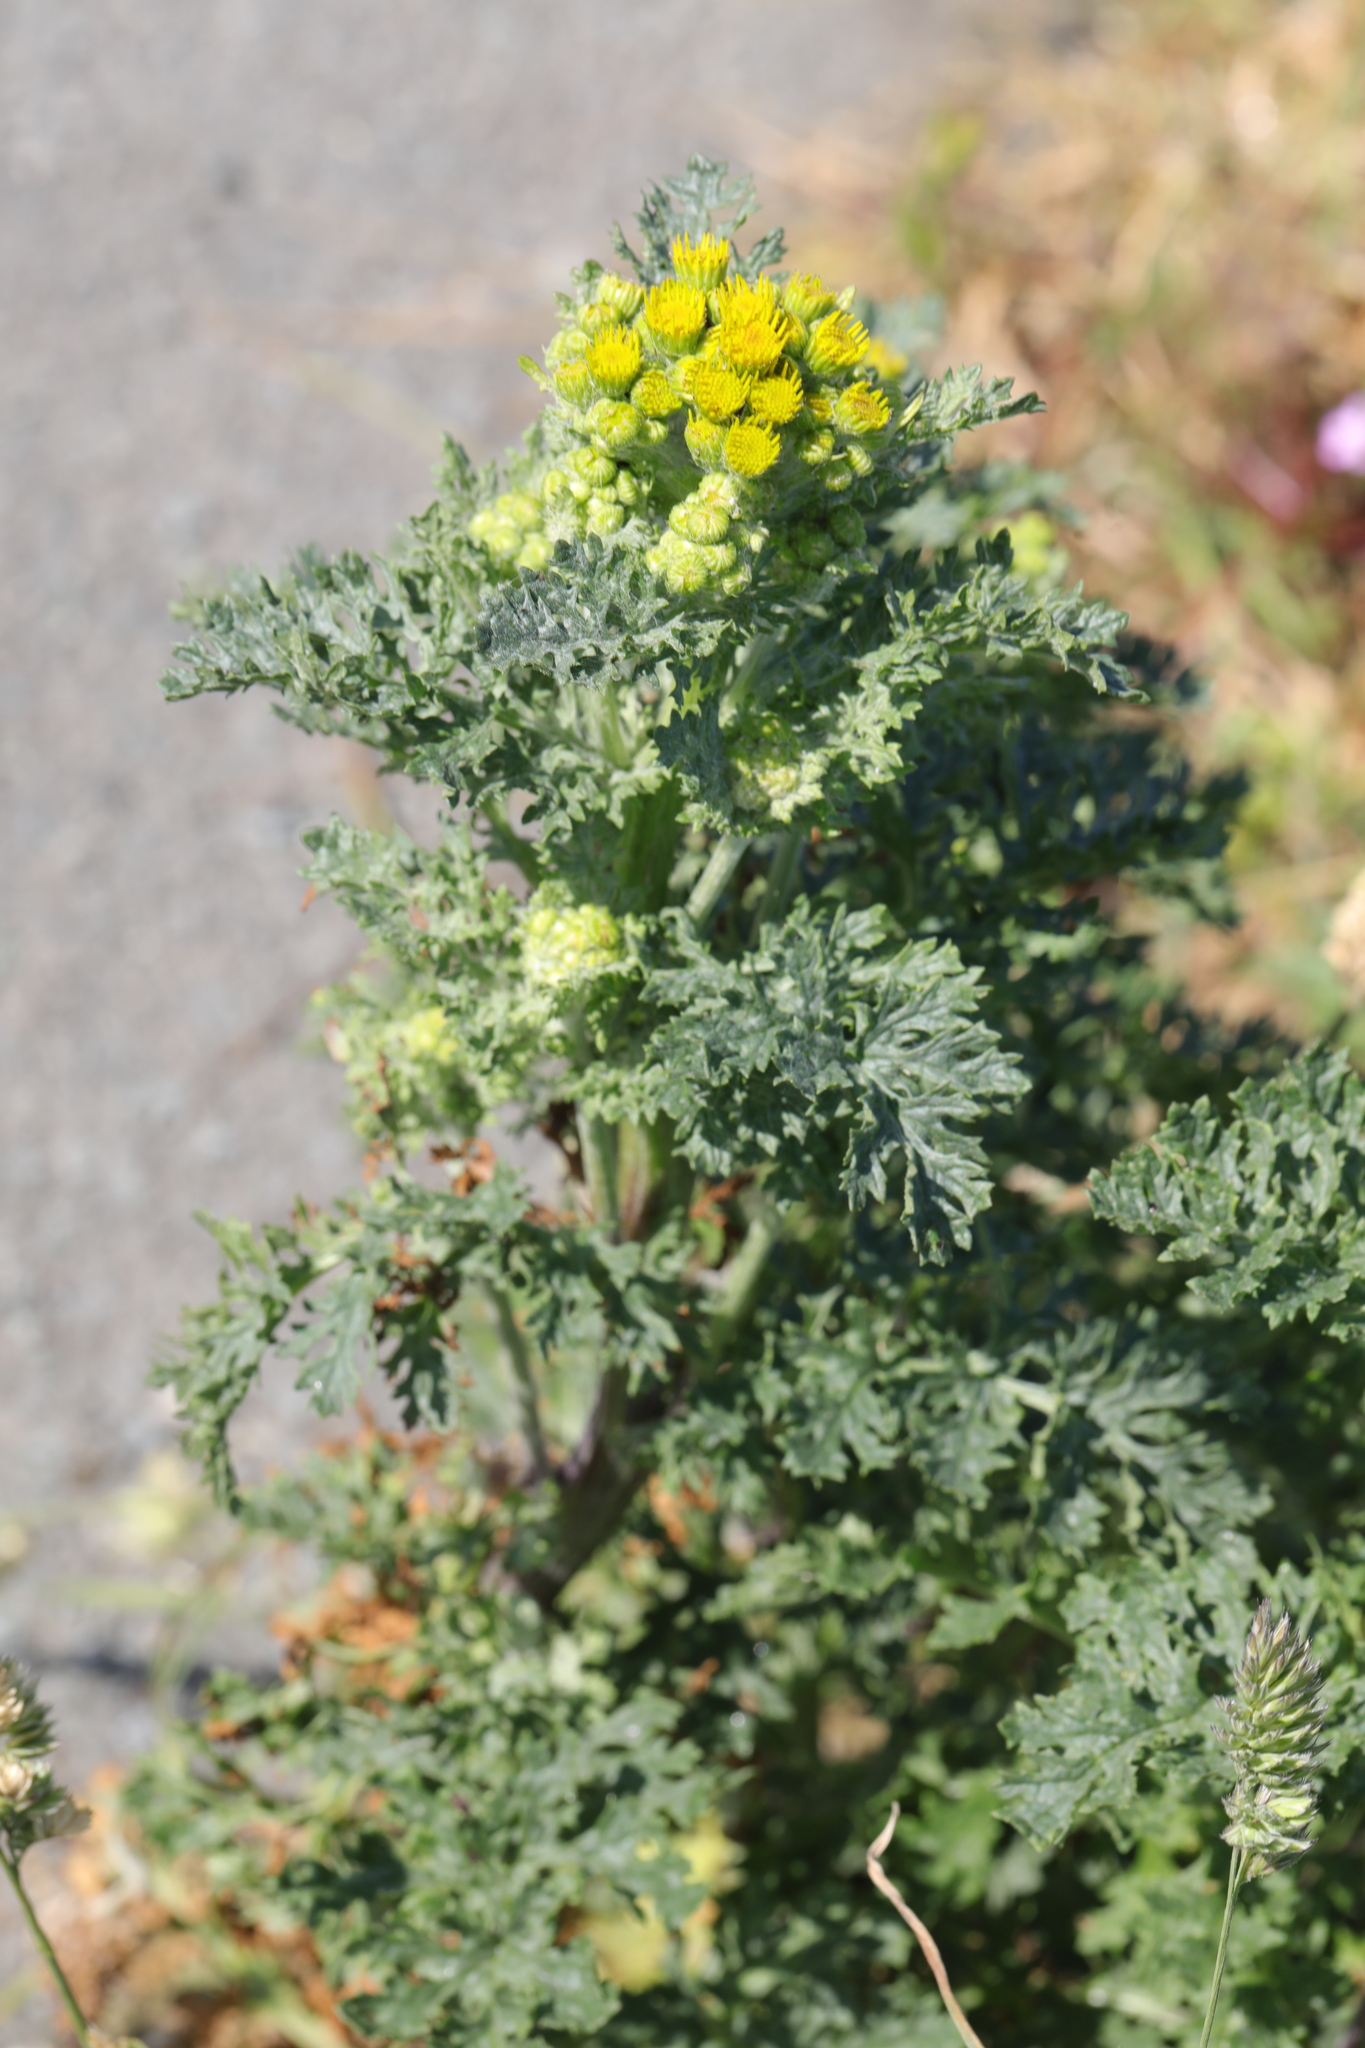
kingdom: Plantae
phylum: Tracheophyta
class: Magnoliopsida
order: Asterales
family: Asteraceae
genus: Jacobaea
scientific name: Jacobaea vulgaris
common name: Stinking willie
